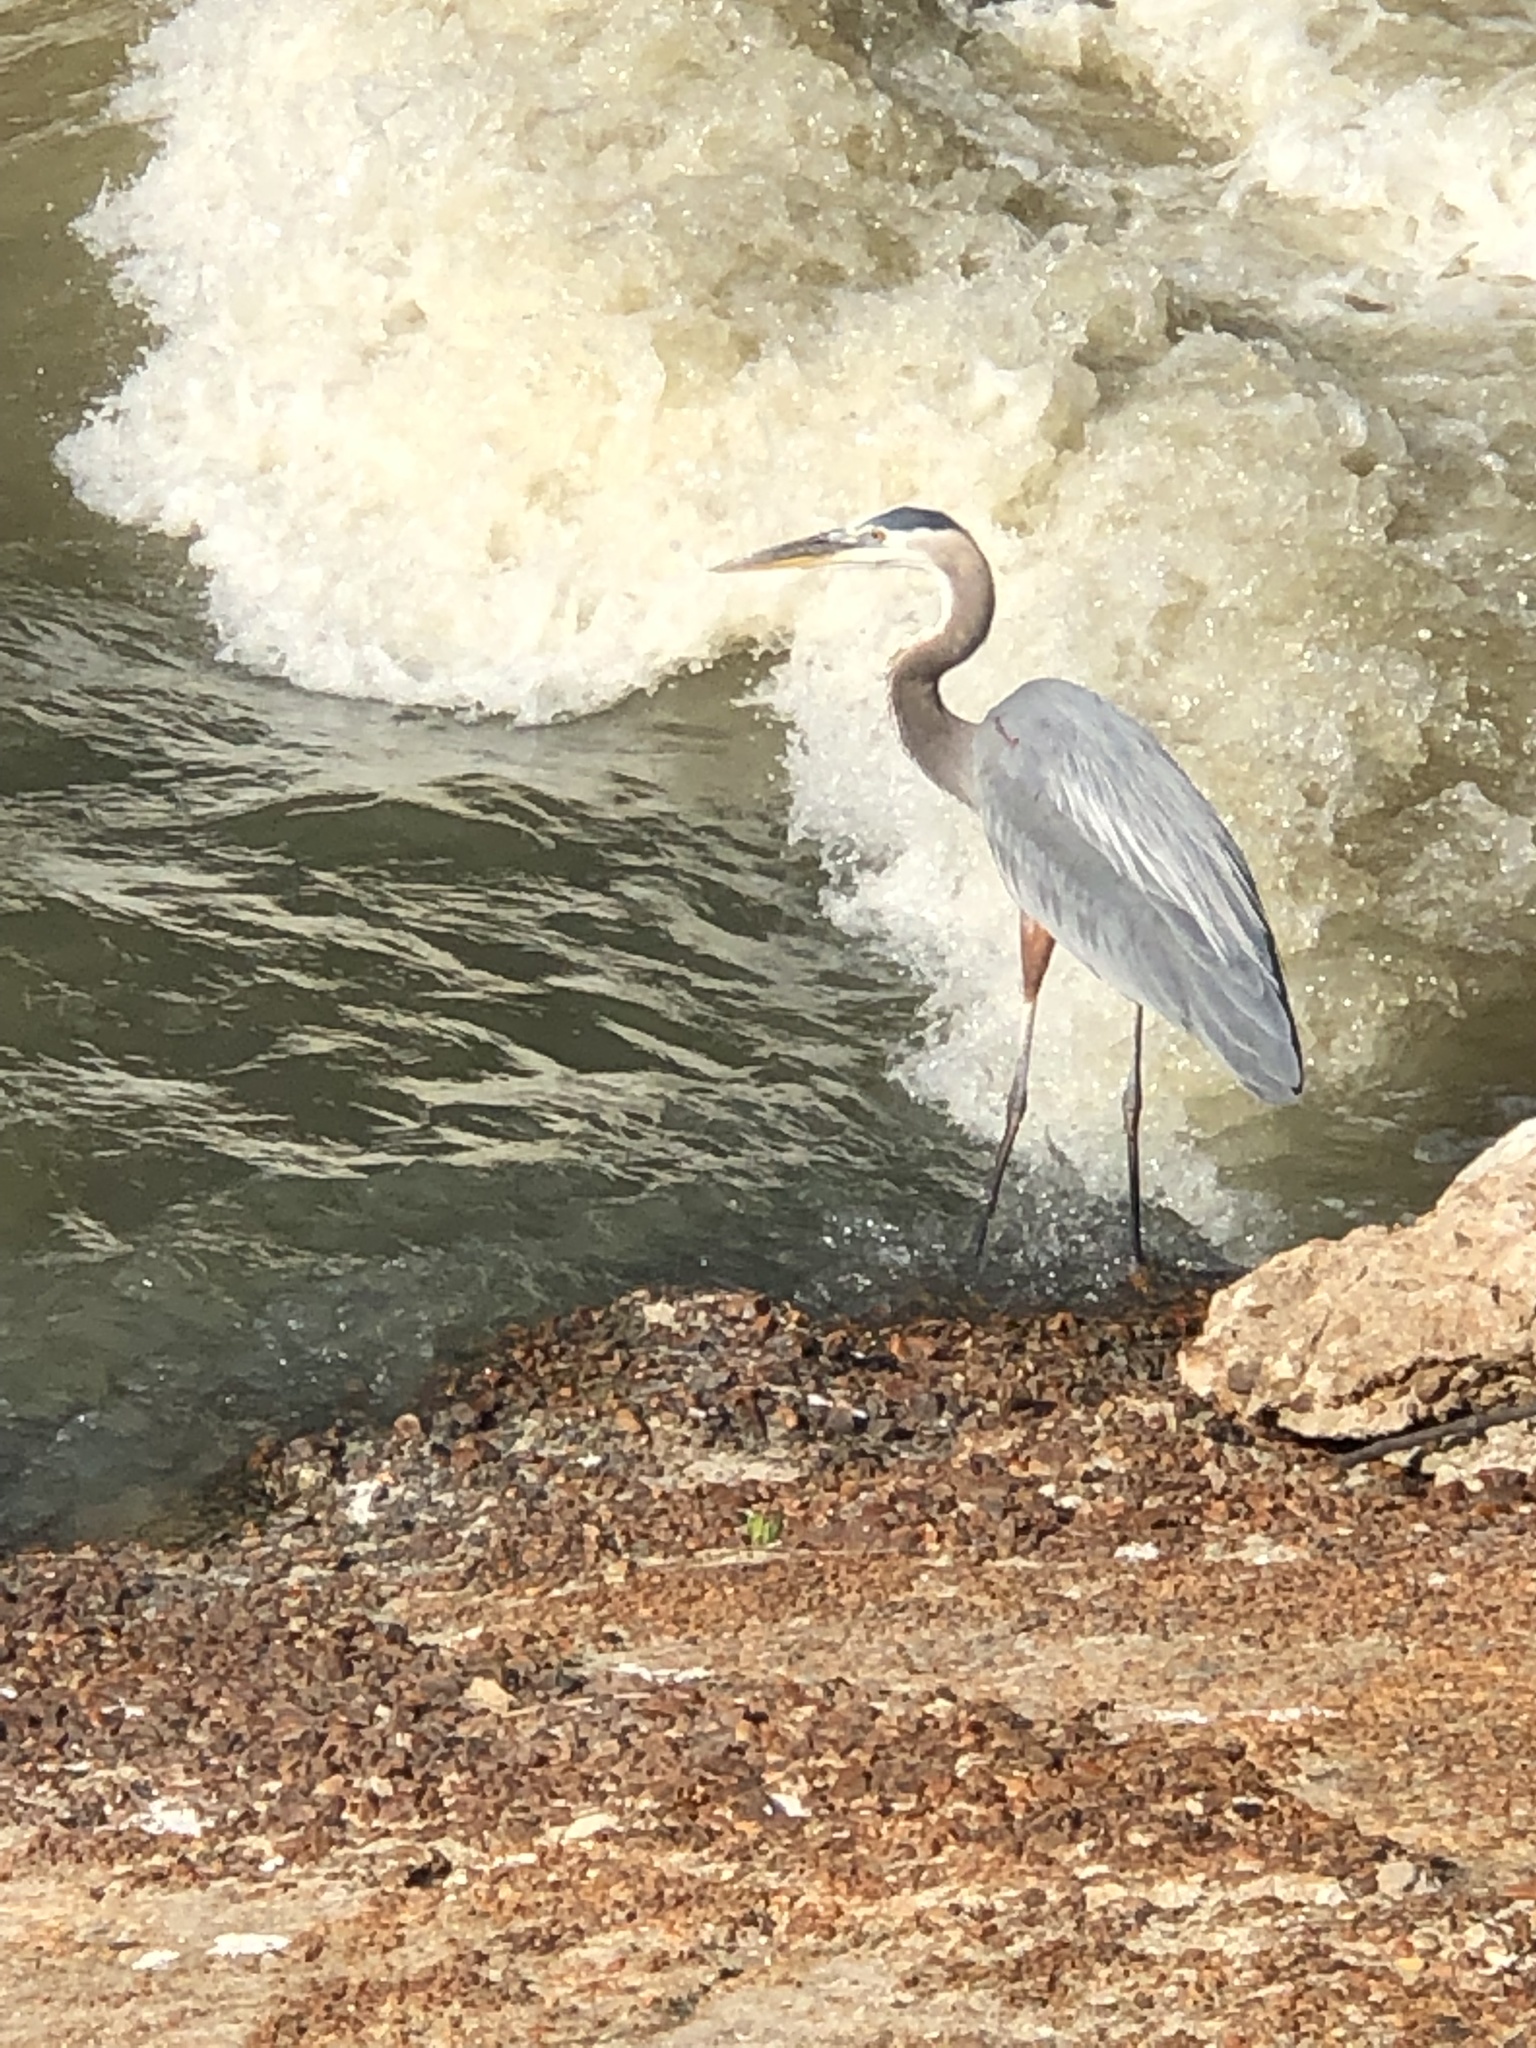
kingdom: Animalia
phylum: Chordata
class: Aves
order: Pelecaniformes
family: Ardeidae
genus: Ardea
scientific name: Ardea herodias
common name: Great blue heron
